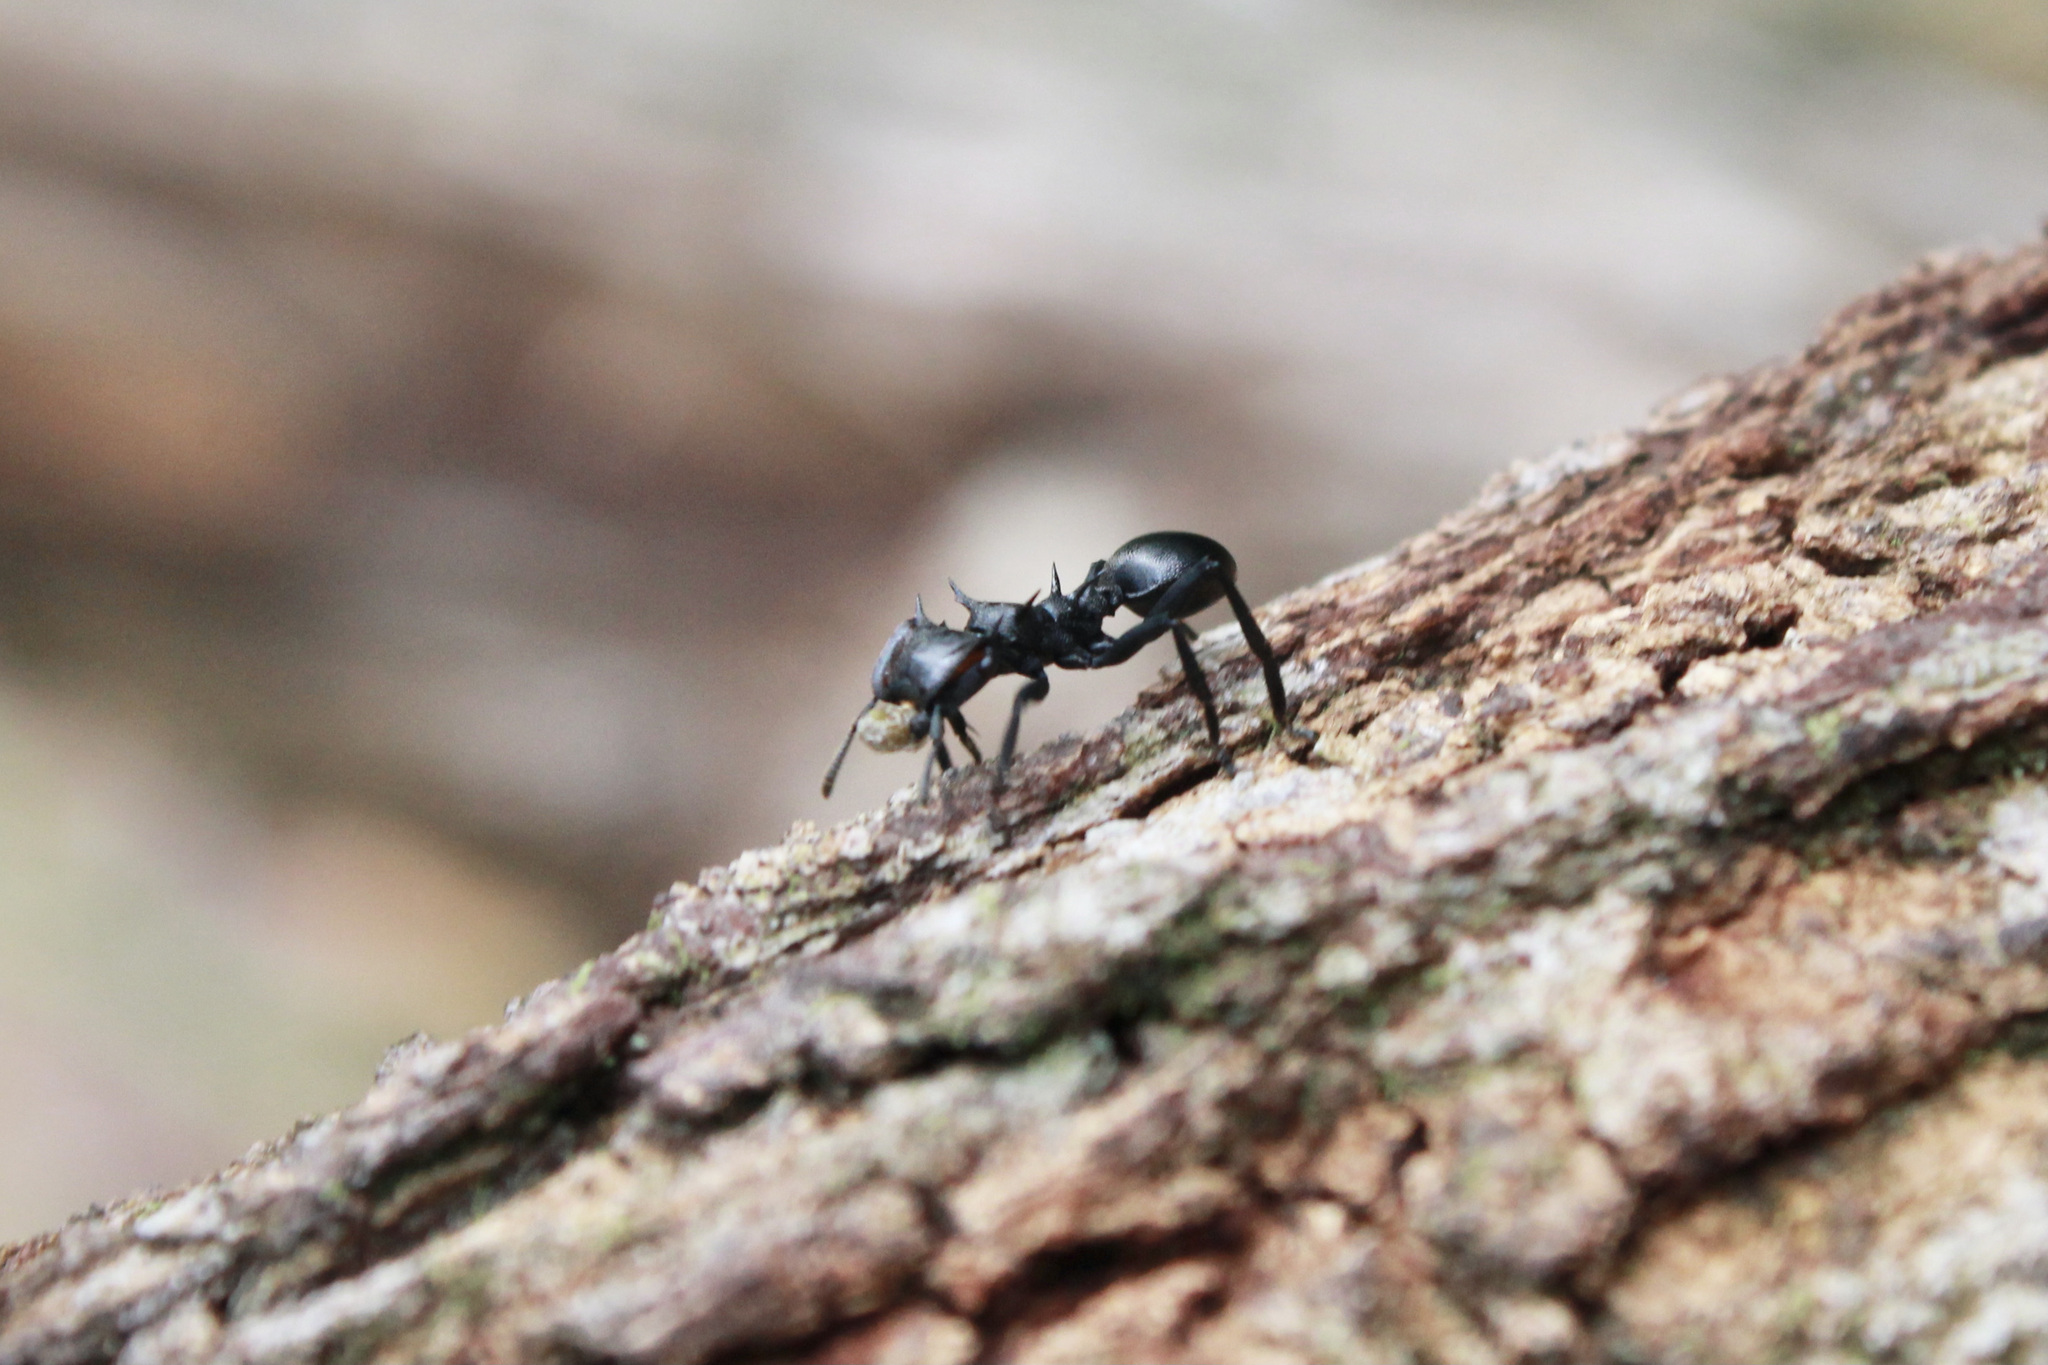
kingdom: Animalia
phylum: Arthropoda
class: Insecta
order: Hymenoptera
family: Formicidae
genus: Cephalotes
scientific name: Cephalotes atratus
